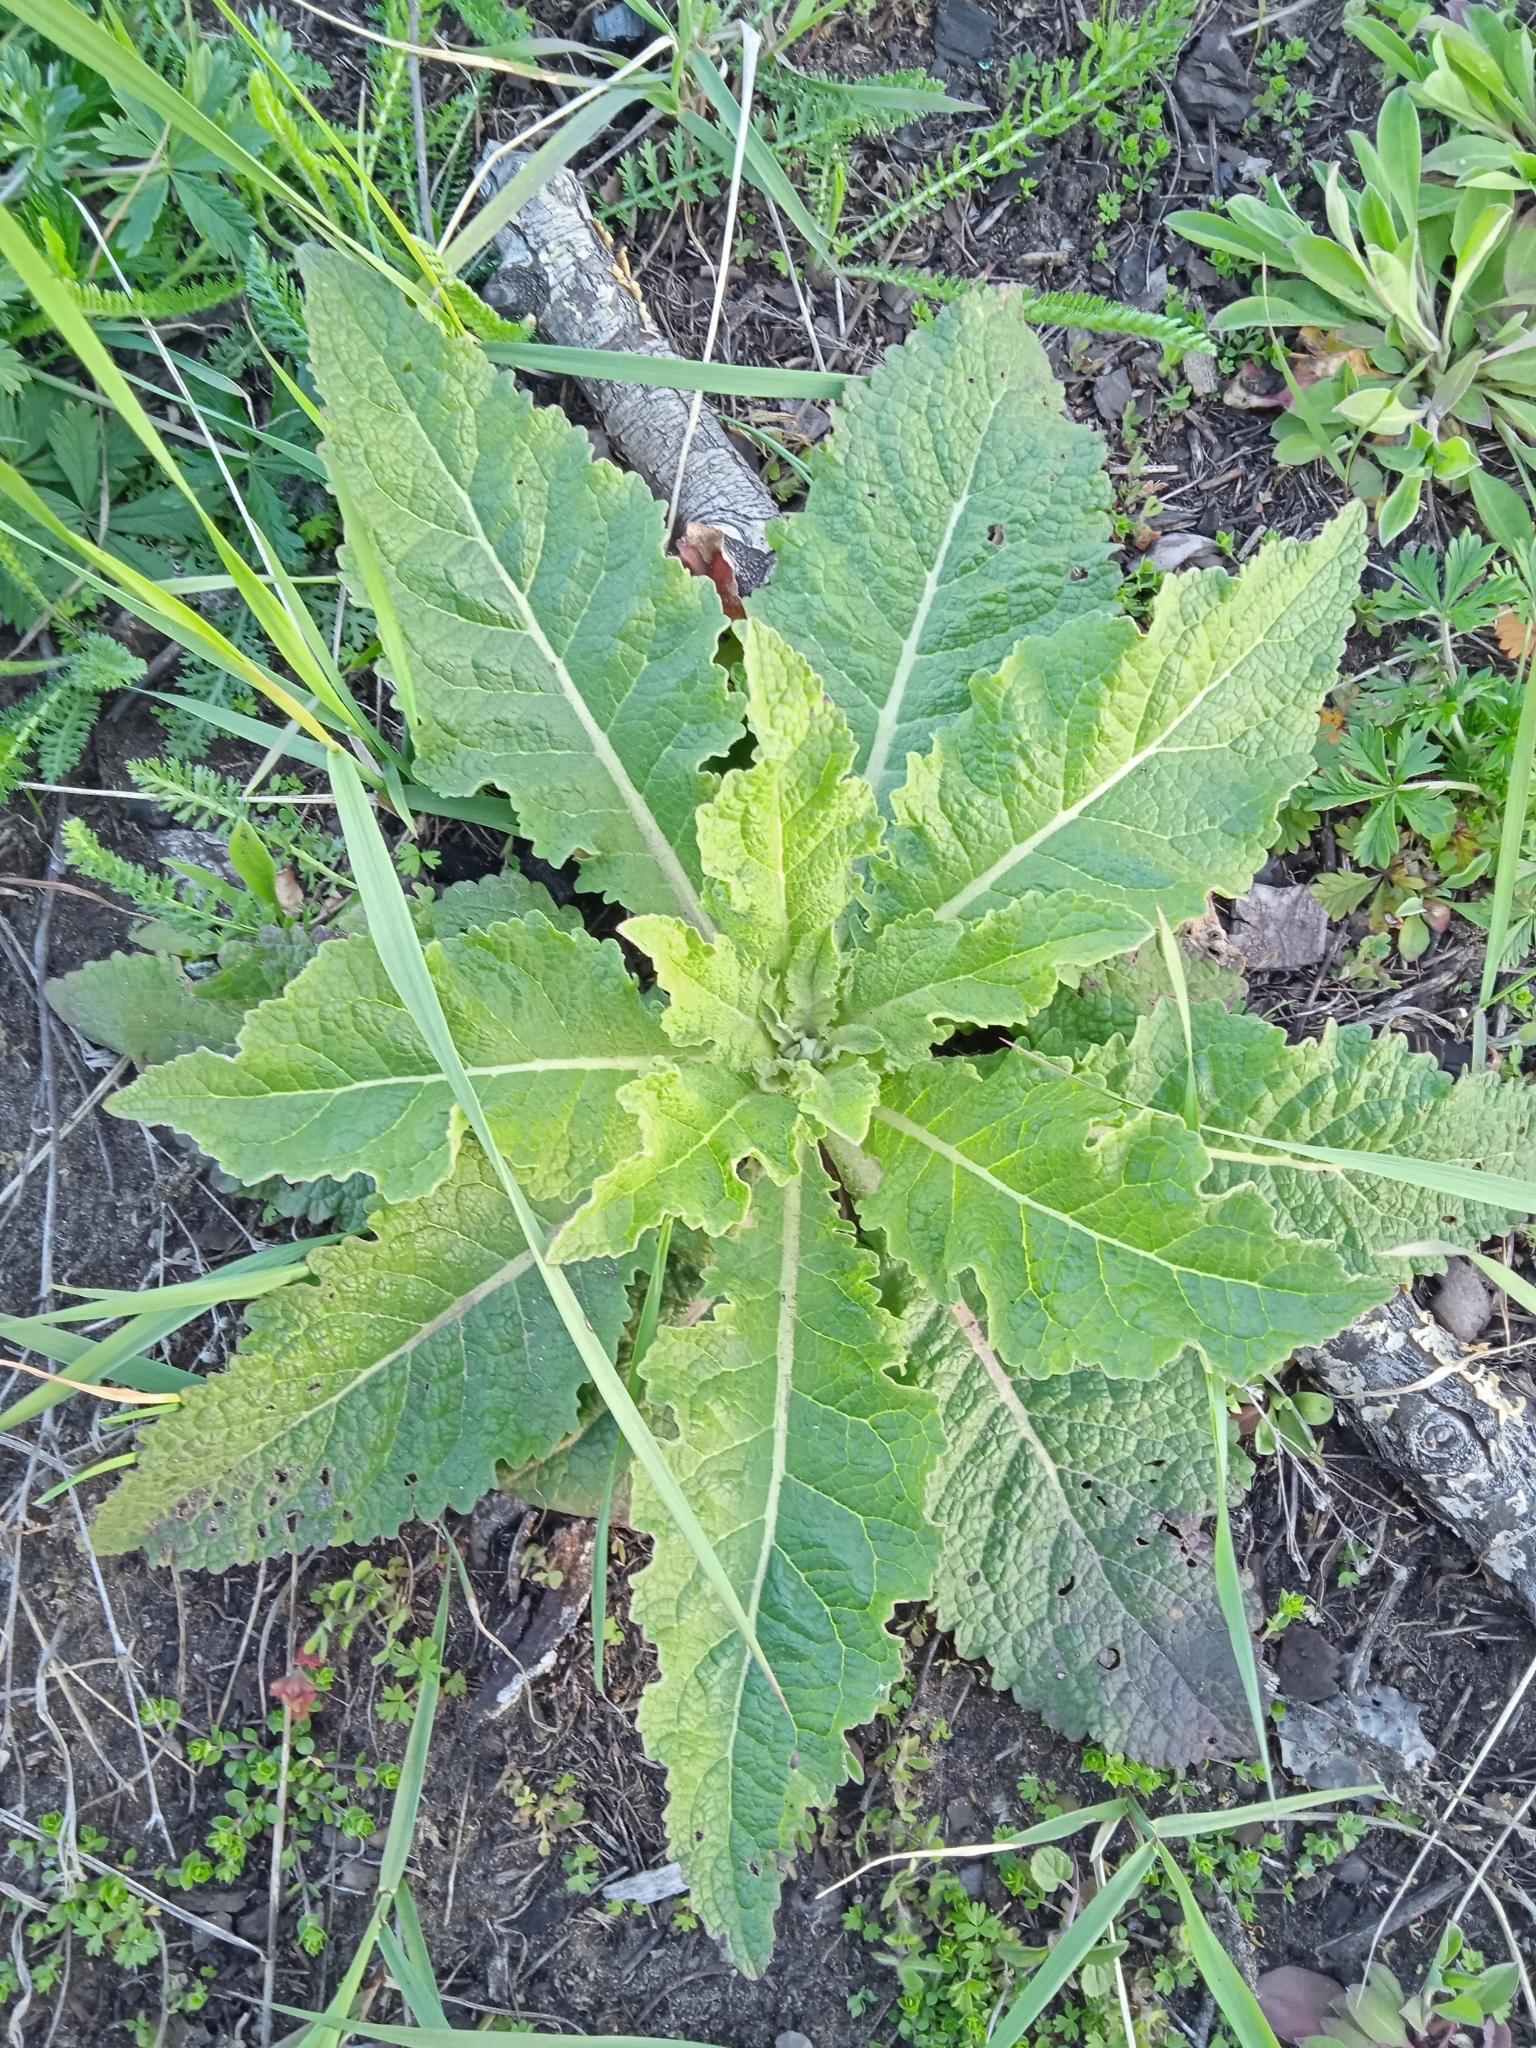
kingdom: Plantae
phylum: Tracheophyta
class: Magnoliopsida
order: Lamiales
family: Scrophulariaceae
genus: Verbascum
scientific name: Verbascum lychnitis
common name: White mullein
